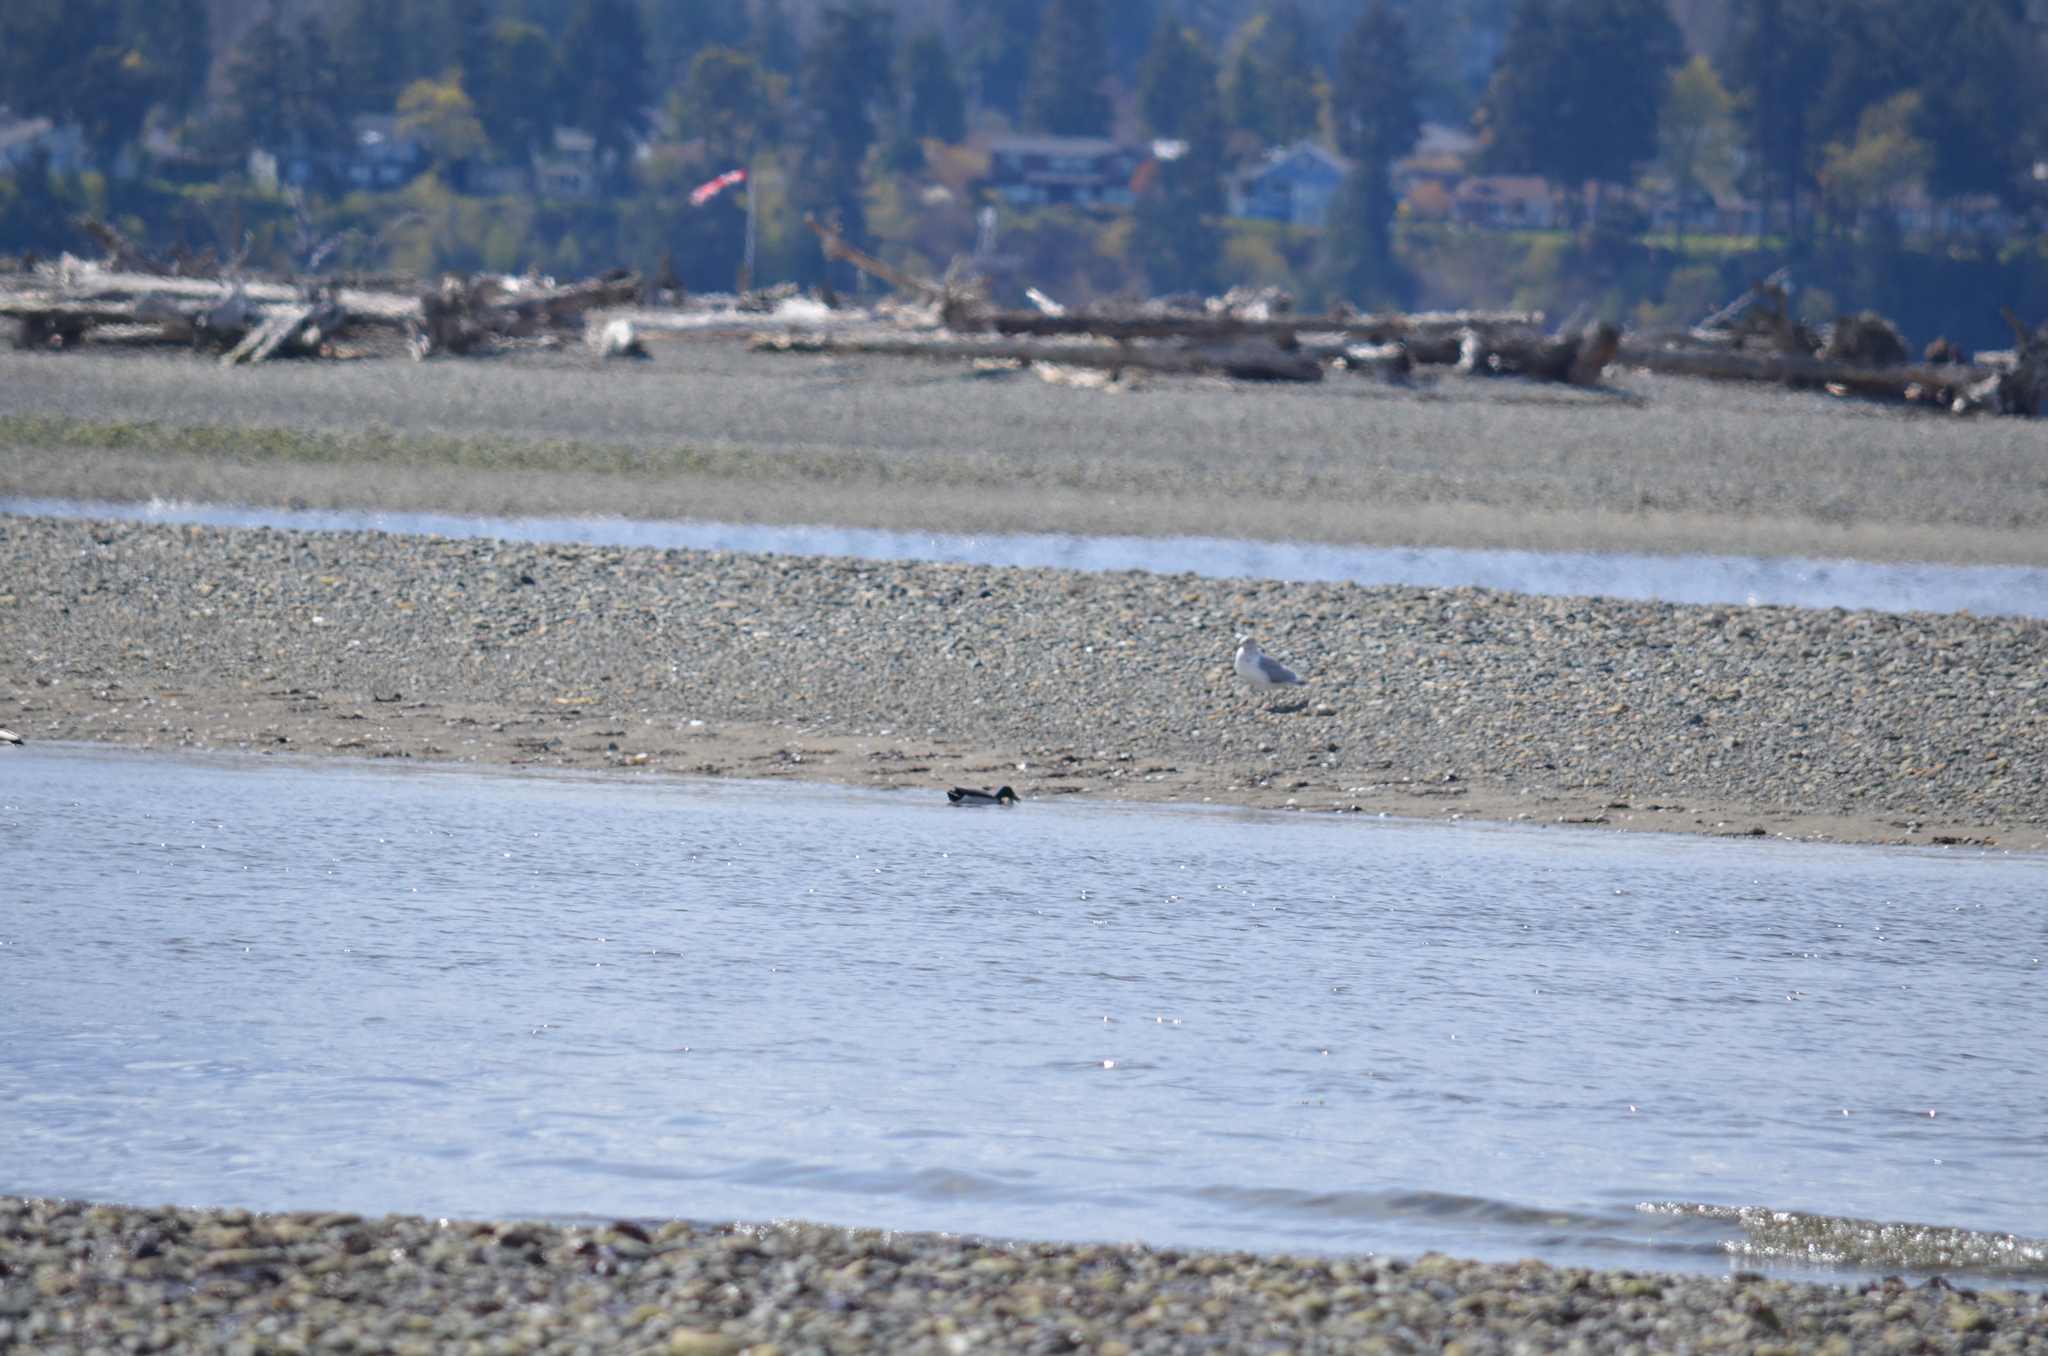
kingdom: Animalia
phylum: Chordata
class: Aves
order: Anseriformes
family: Anatidae
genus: Anas
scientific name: Anas platyrhynchos
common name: Mallard
